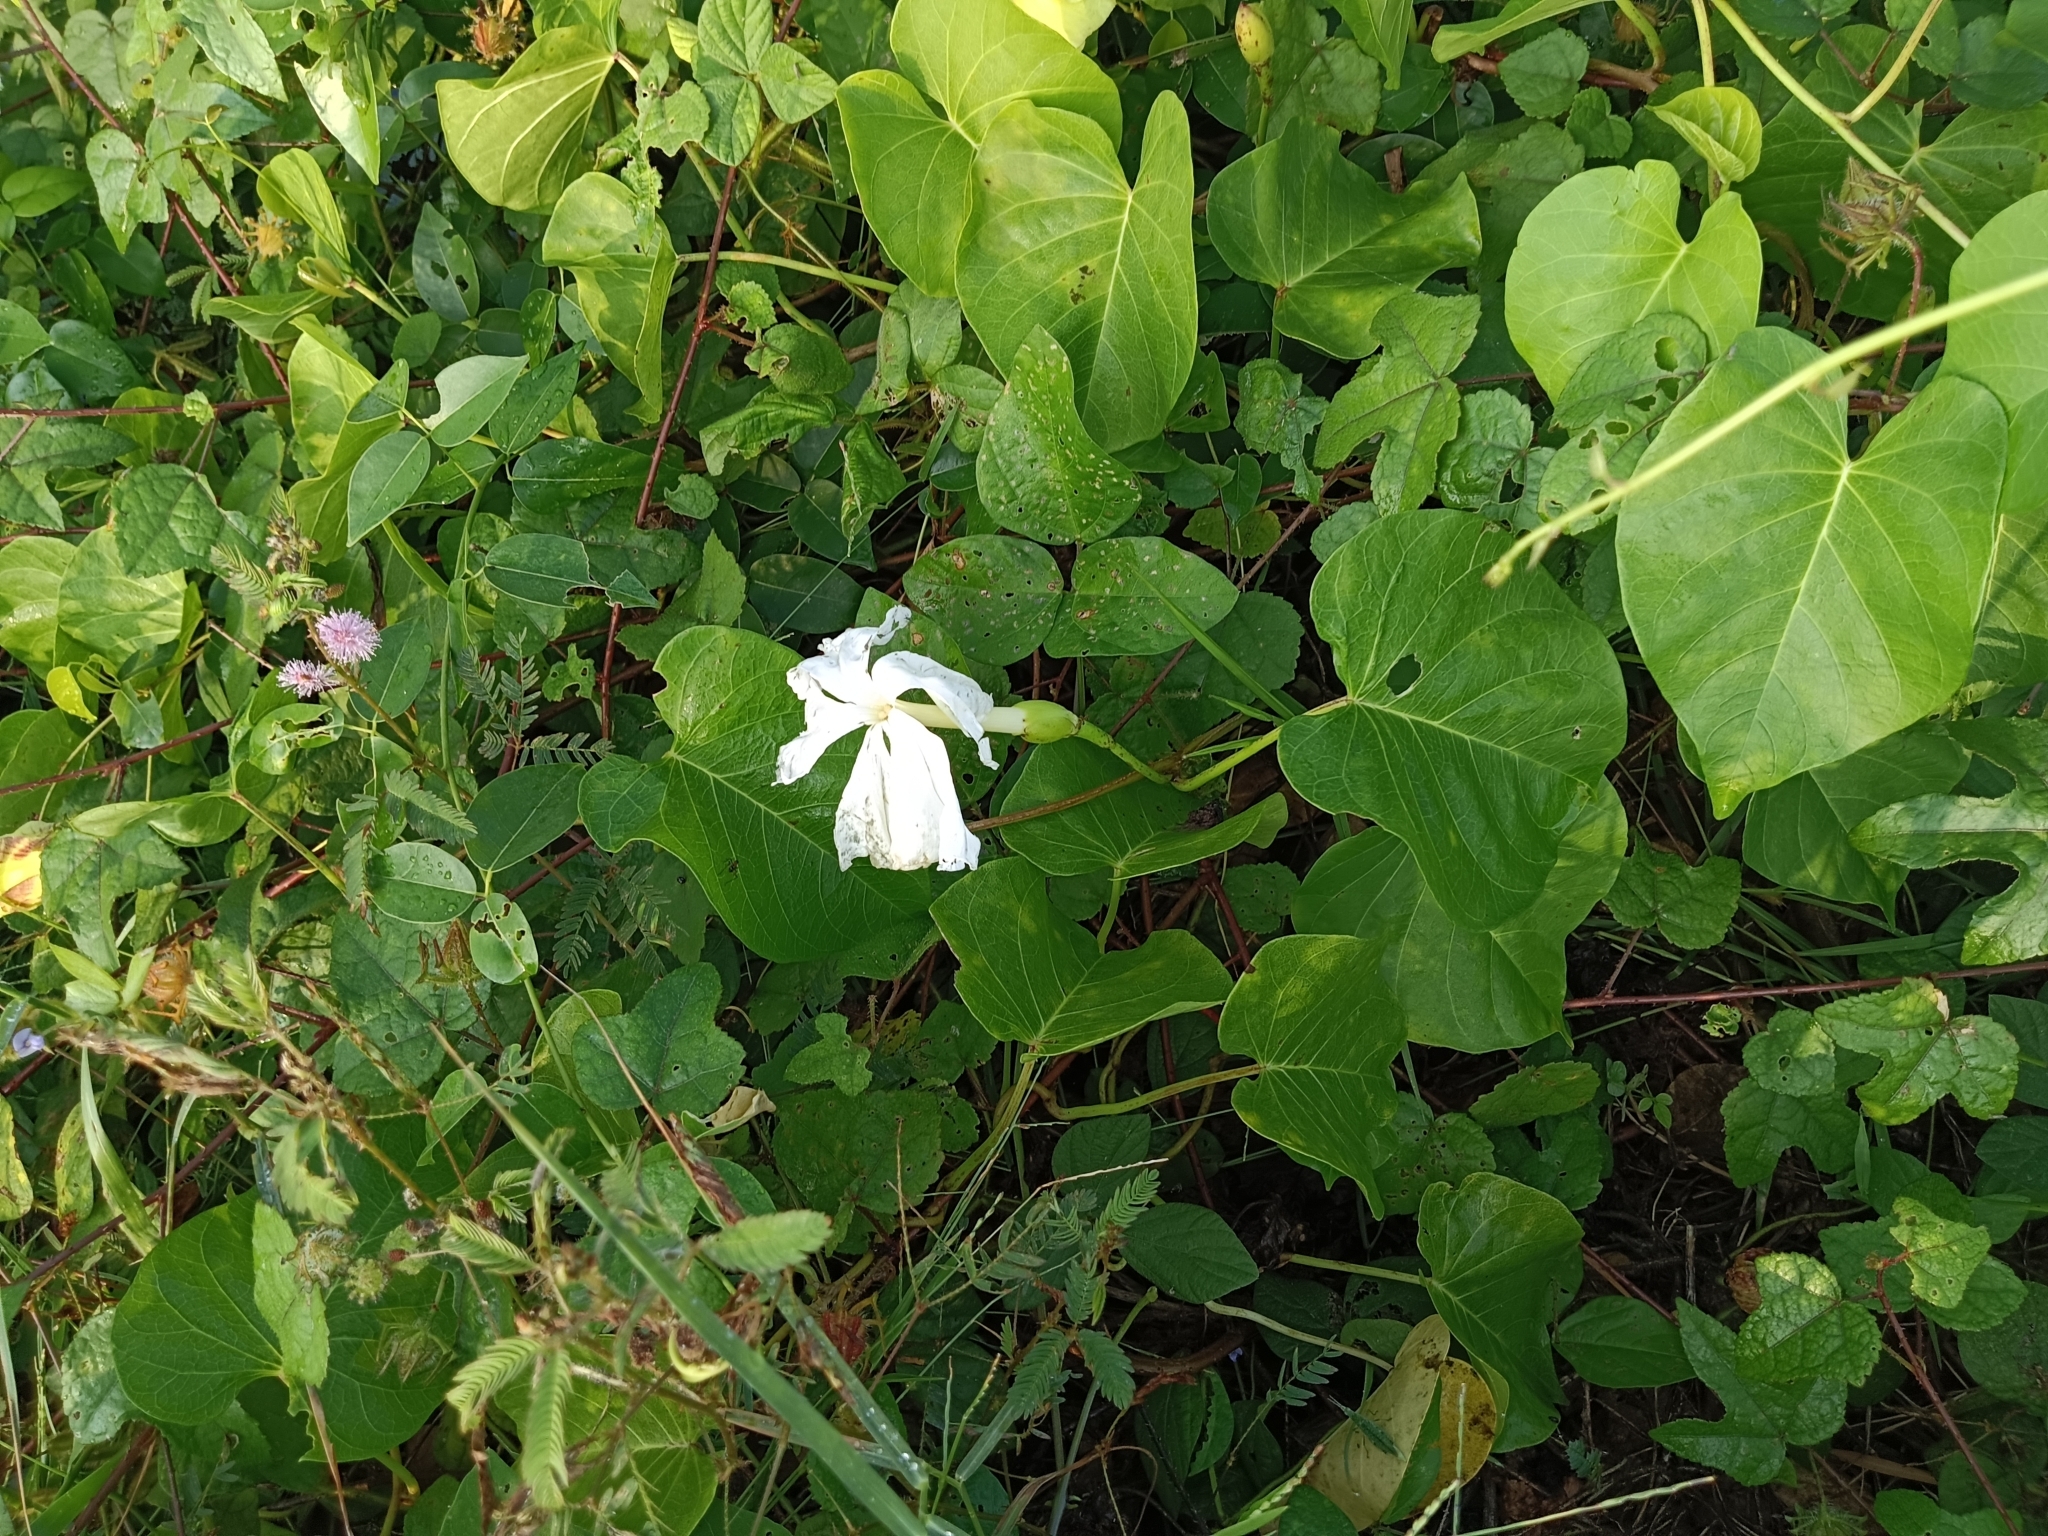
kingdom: Plantae
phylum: Tracheophyta
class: Magnoliopsida
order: Solanales
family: Convolvulaceae
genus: Ipomoea
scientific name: Ipomoea violacea
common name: Beach moonflower
